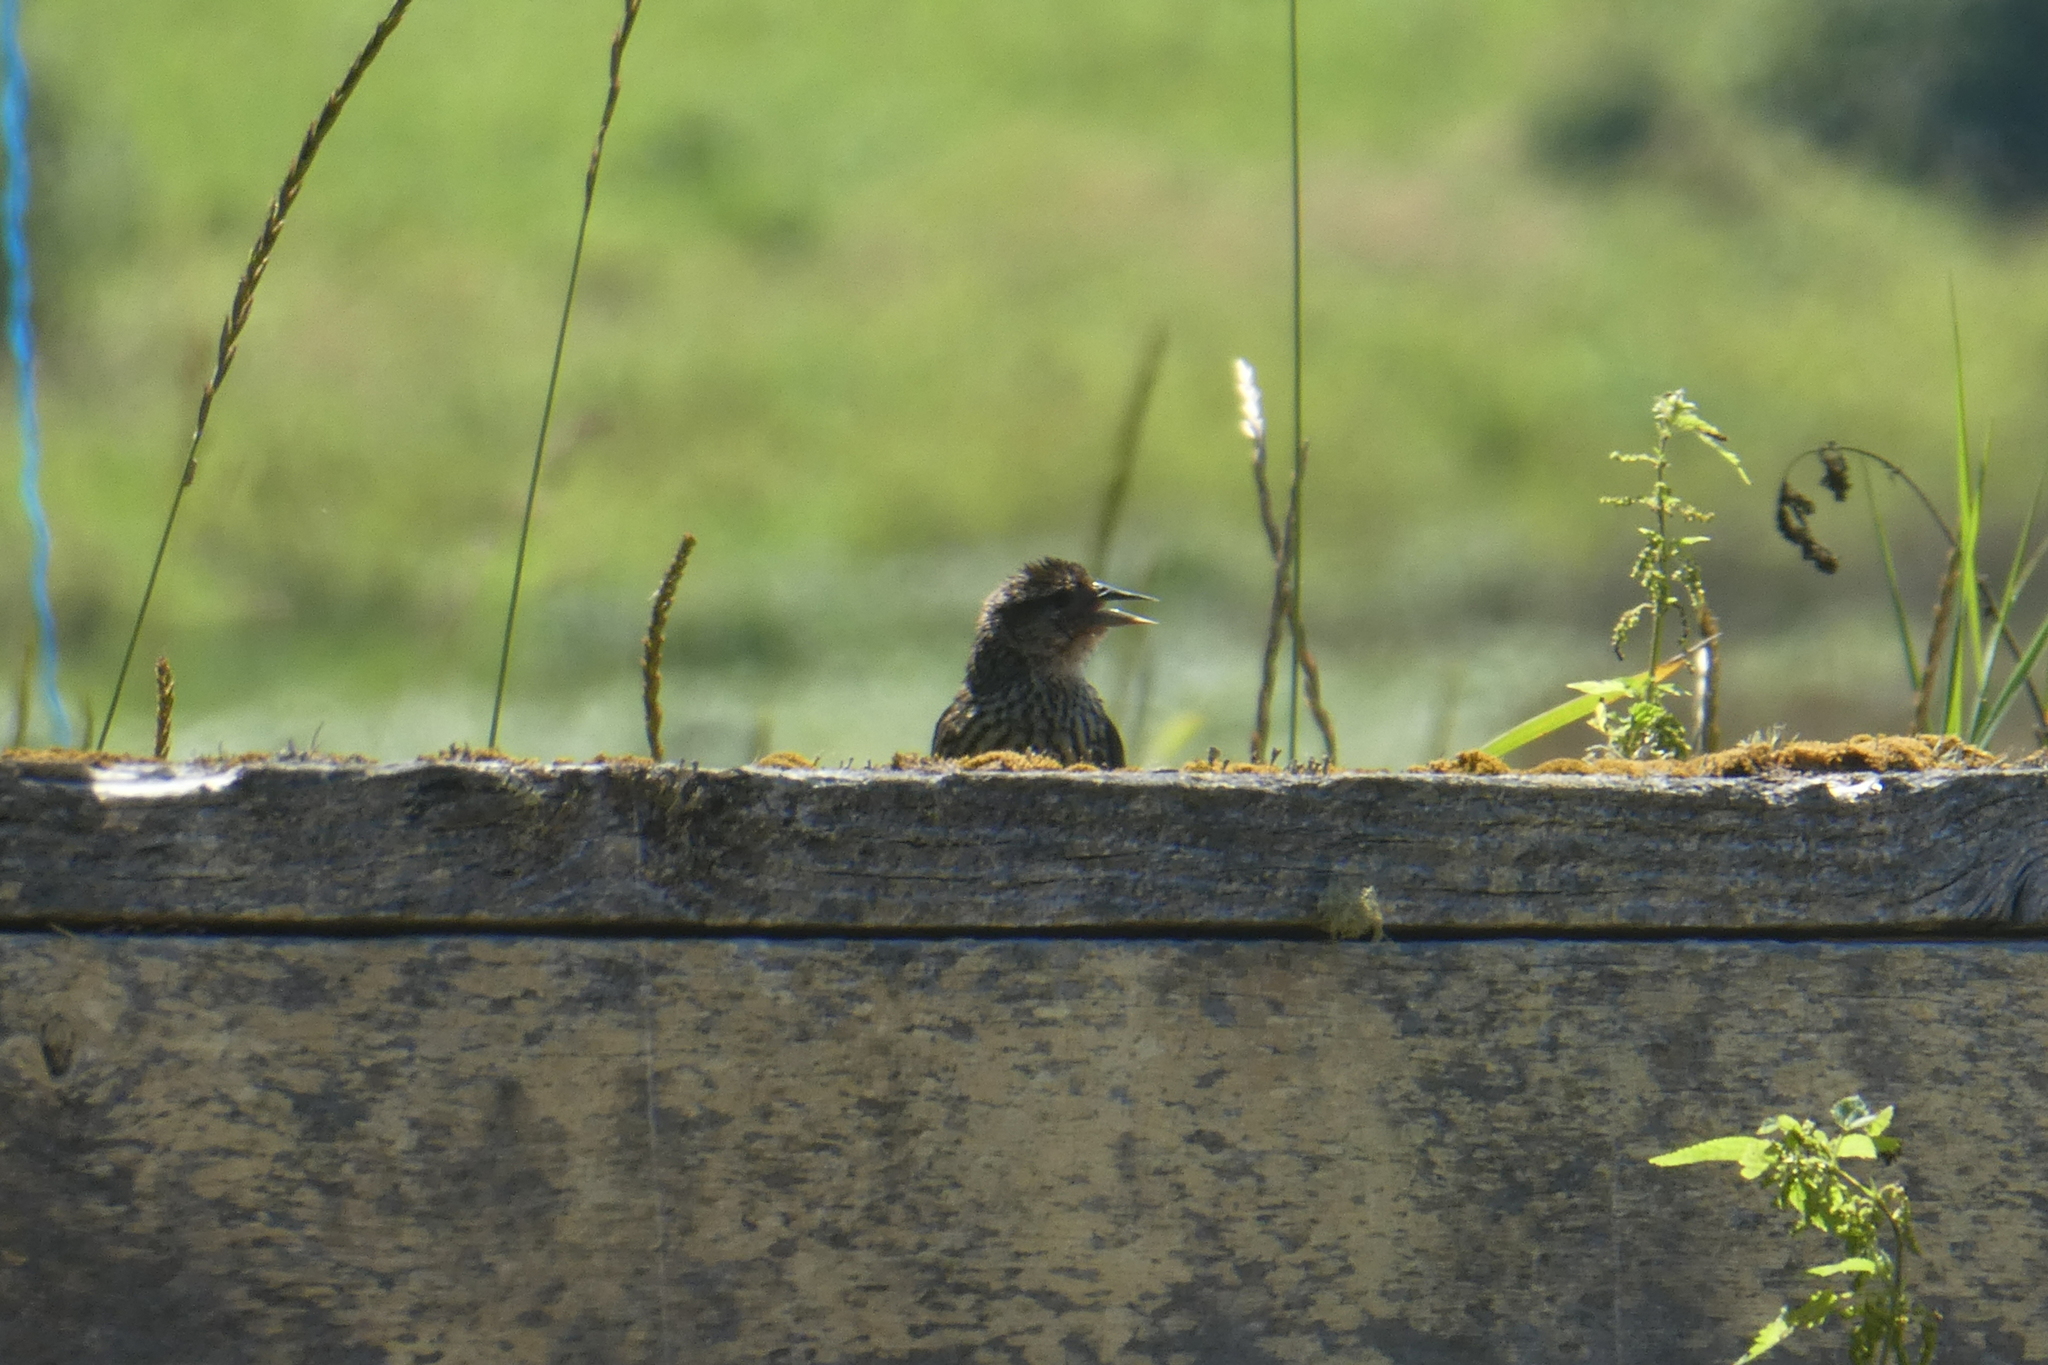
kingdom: Animalia
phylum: Chordata
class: Aves
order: Passeriformes
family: Icteridae
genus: Agelaius
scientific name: Agelaius phoeniceus
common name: Red-winged blackbird
